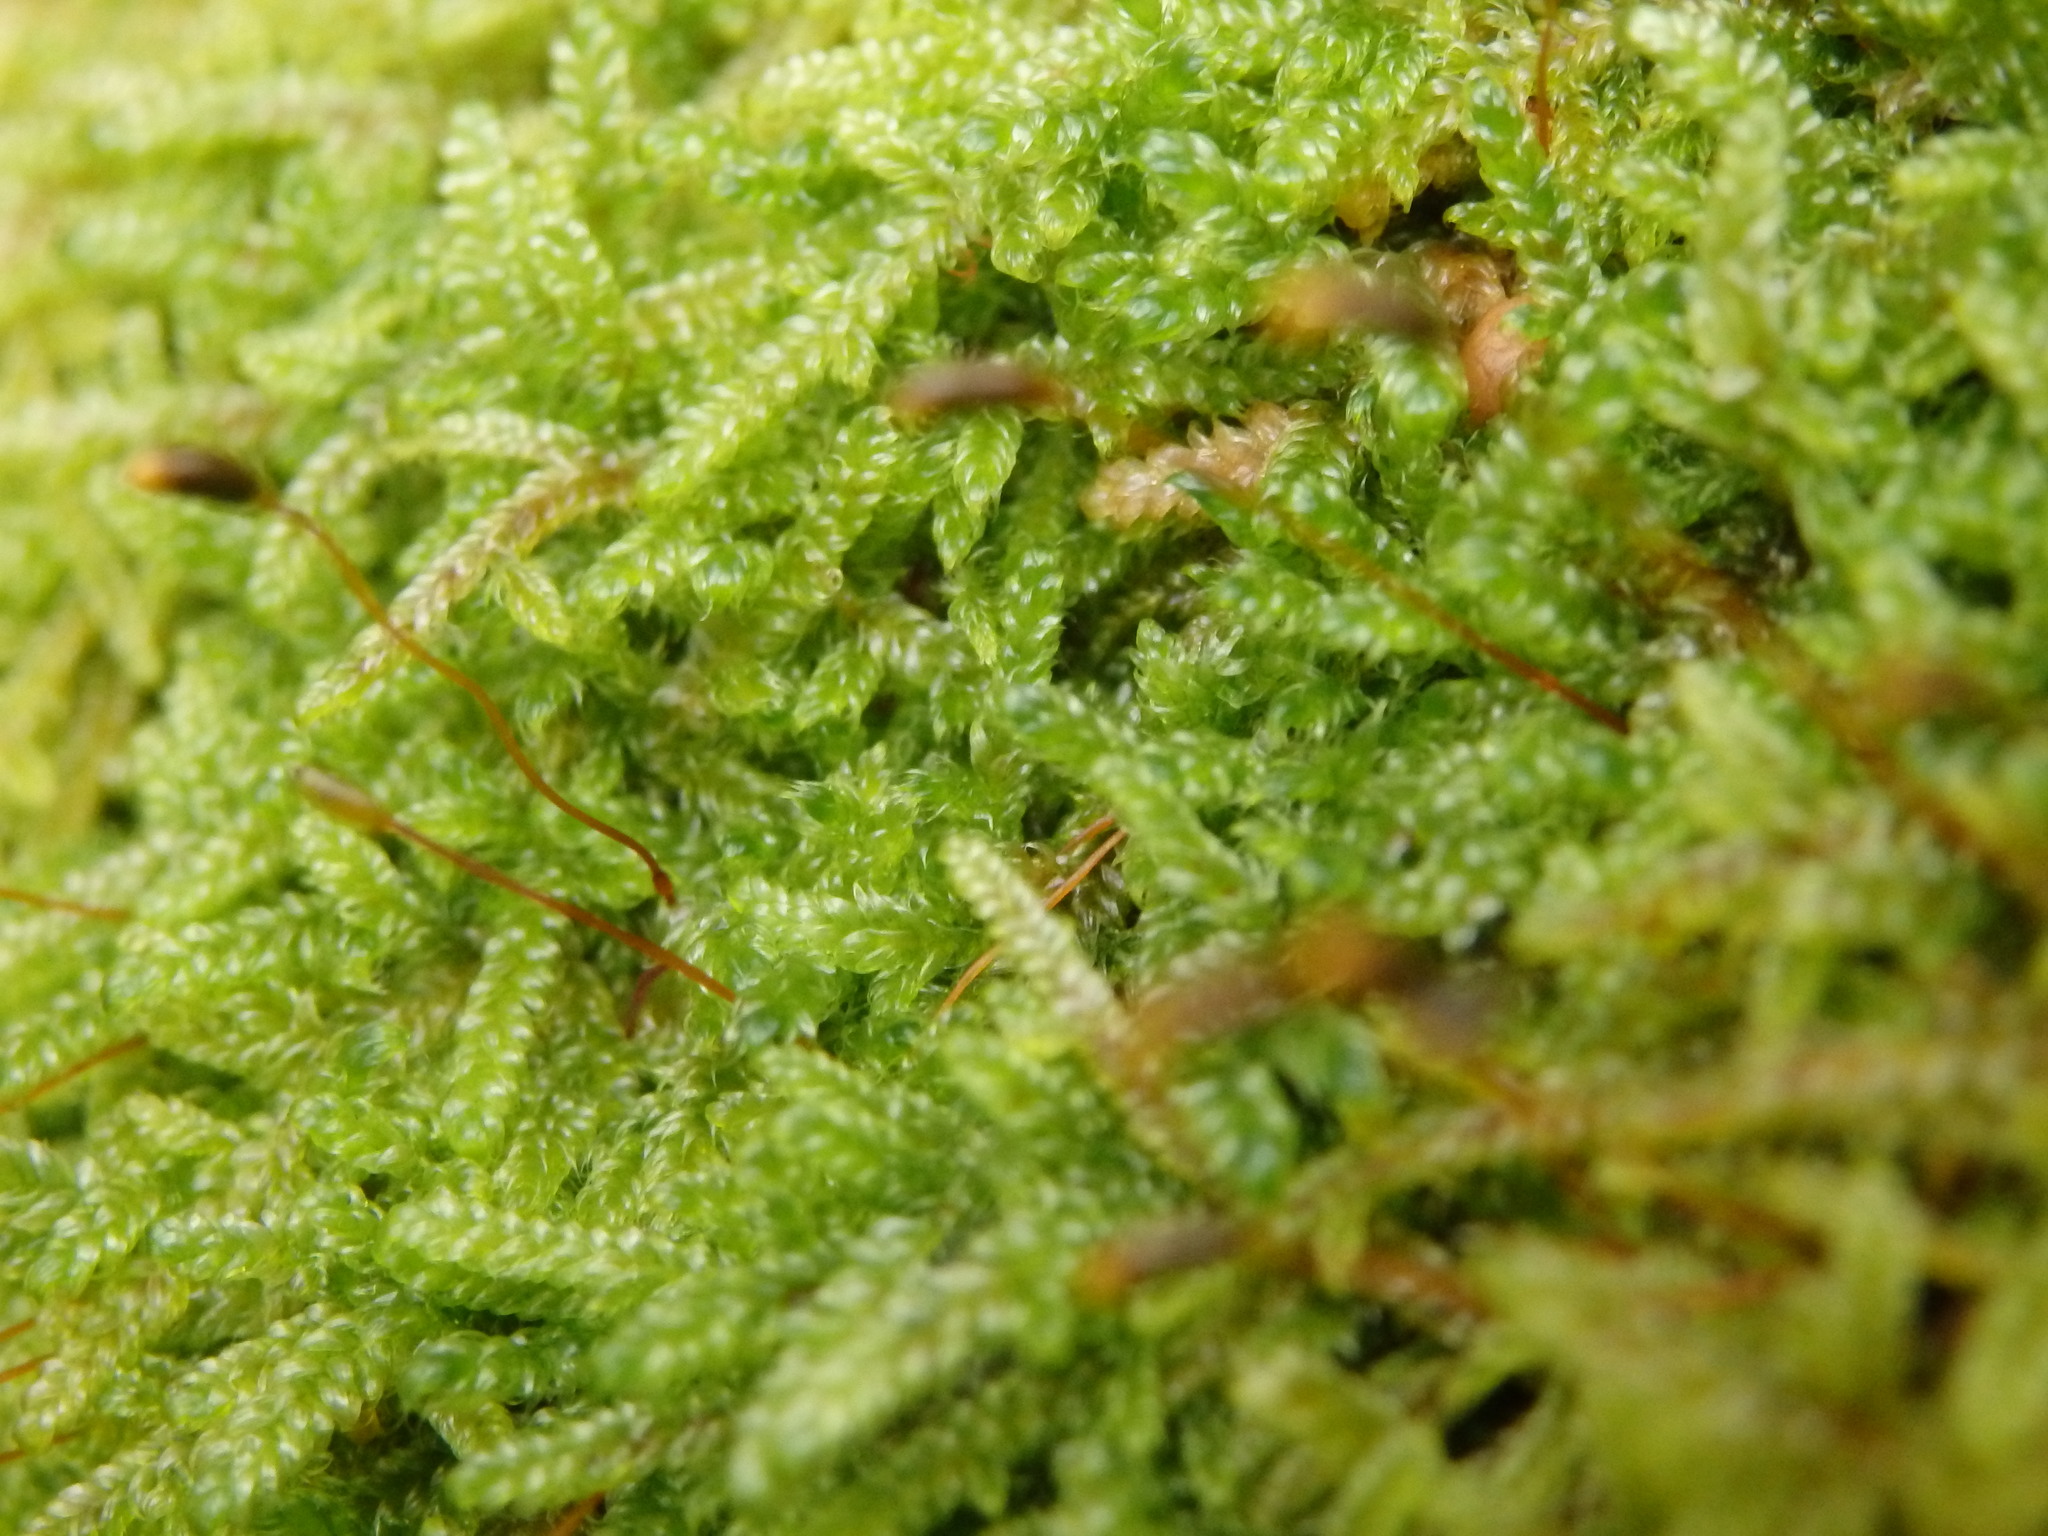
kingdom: Plantae
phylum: Bryophyta
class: Bryopsida
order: Hypnales
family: Hypnaceae
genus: Hypnum
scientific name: Hypnum andoi
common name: Ando's plait moss
